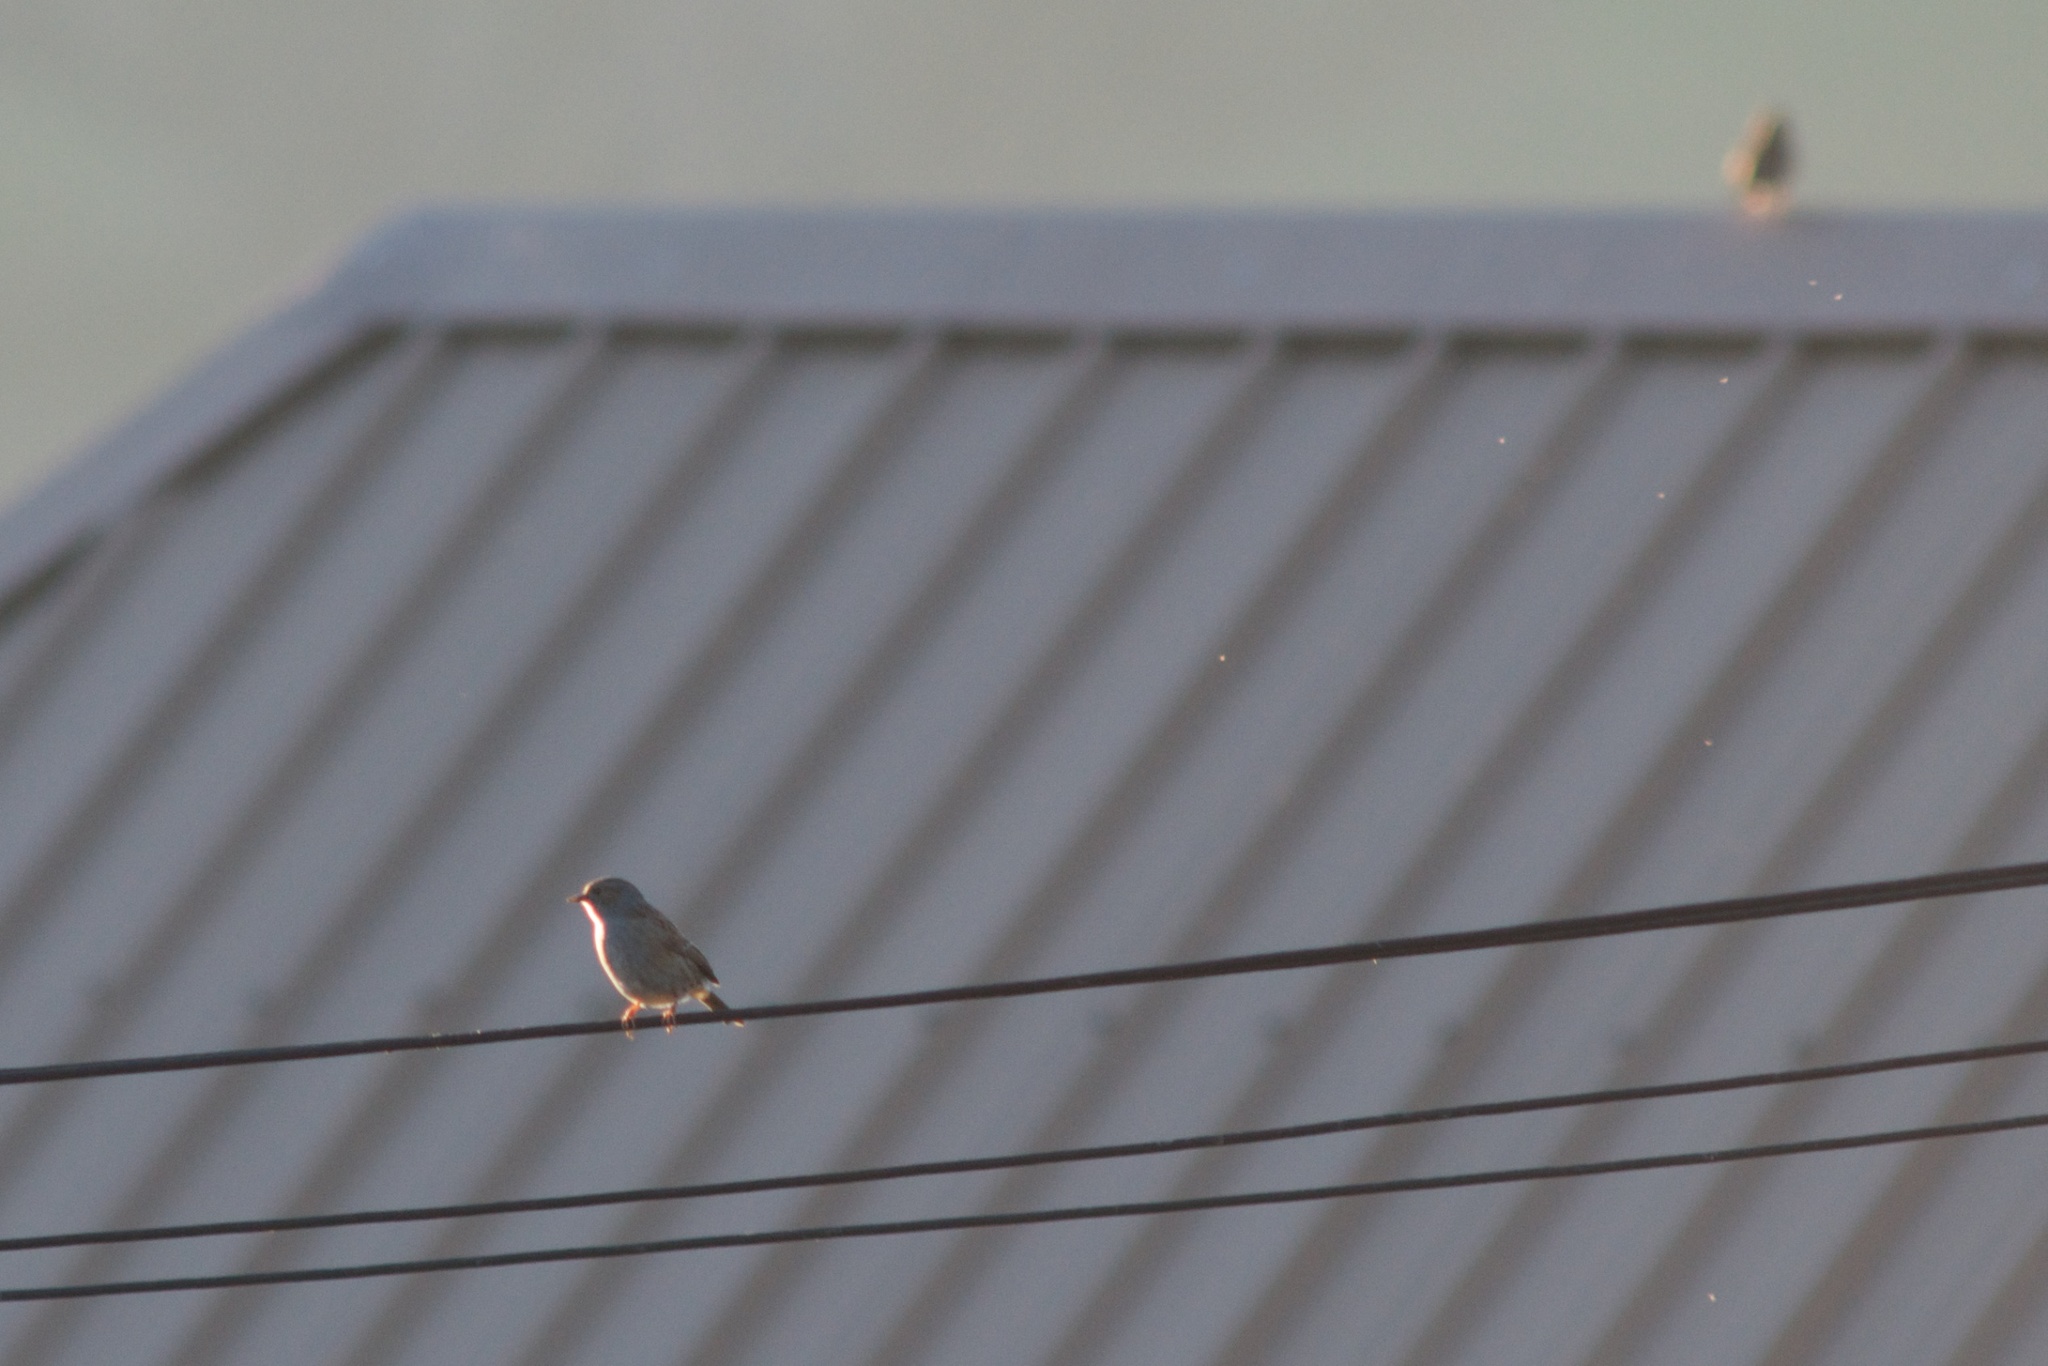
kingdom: Animalia
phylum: Chordata
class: Aves
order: Passeriformes
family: Prunellidae
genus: Prunella
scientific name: Prunella modularis
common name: Dunnock
